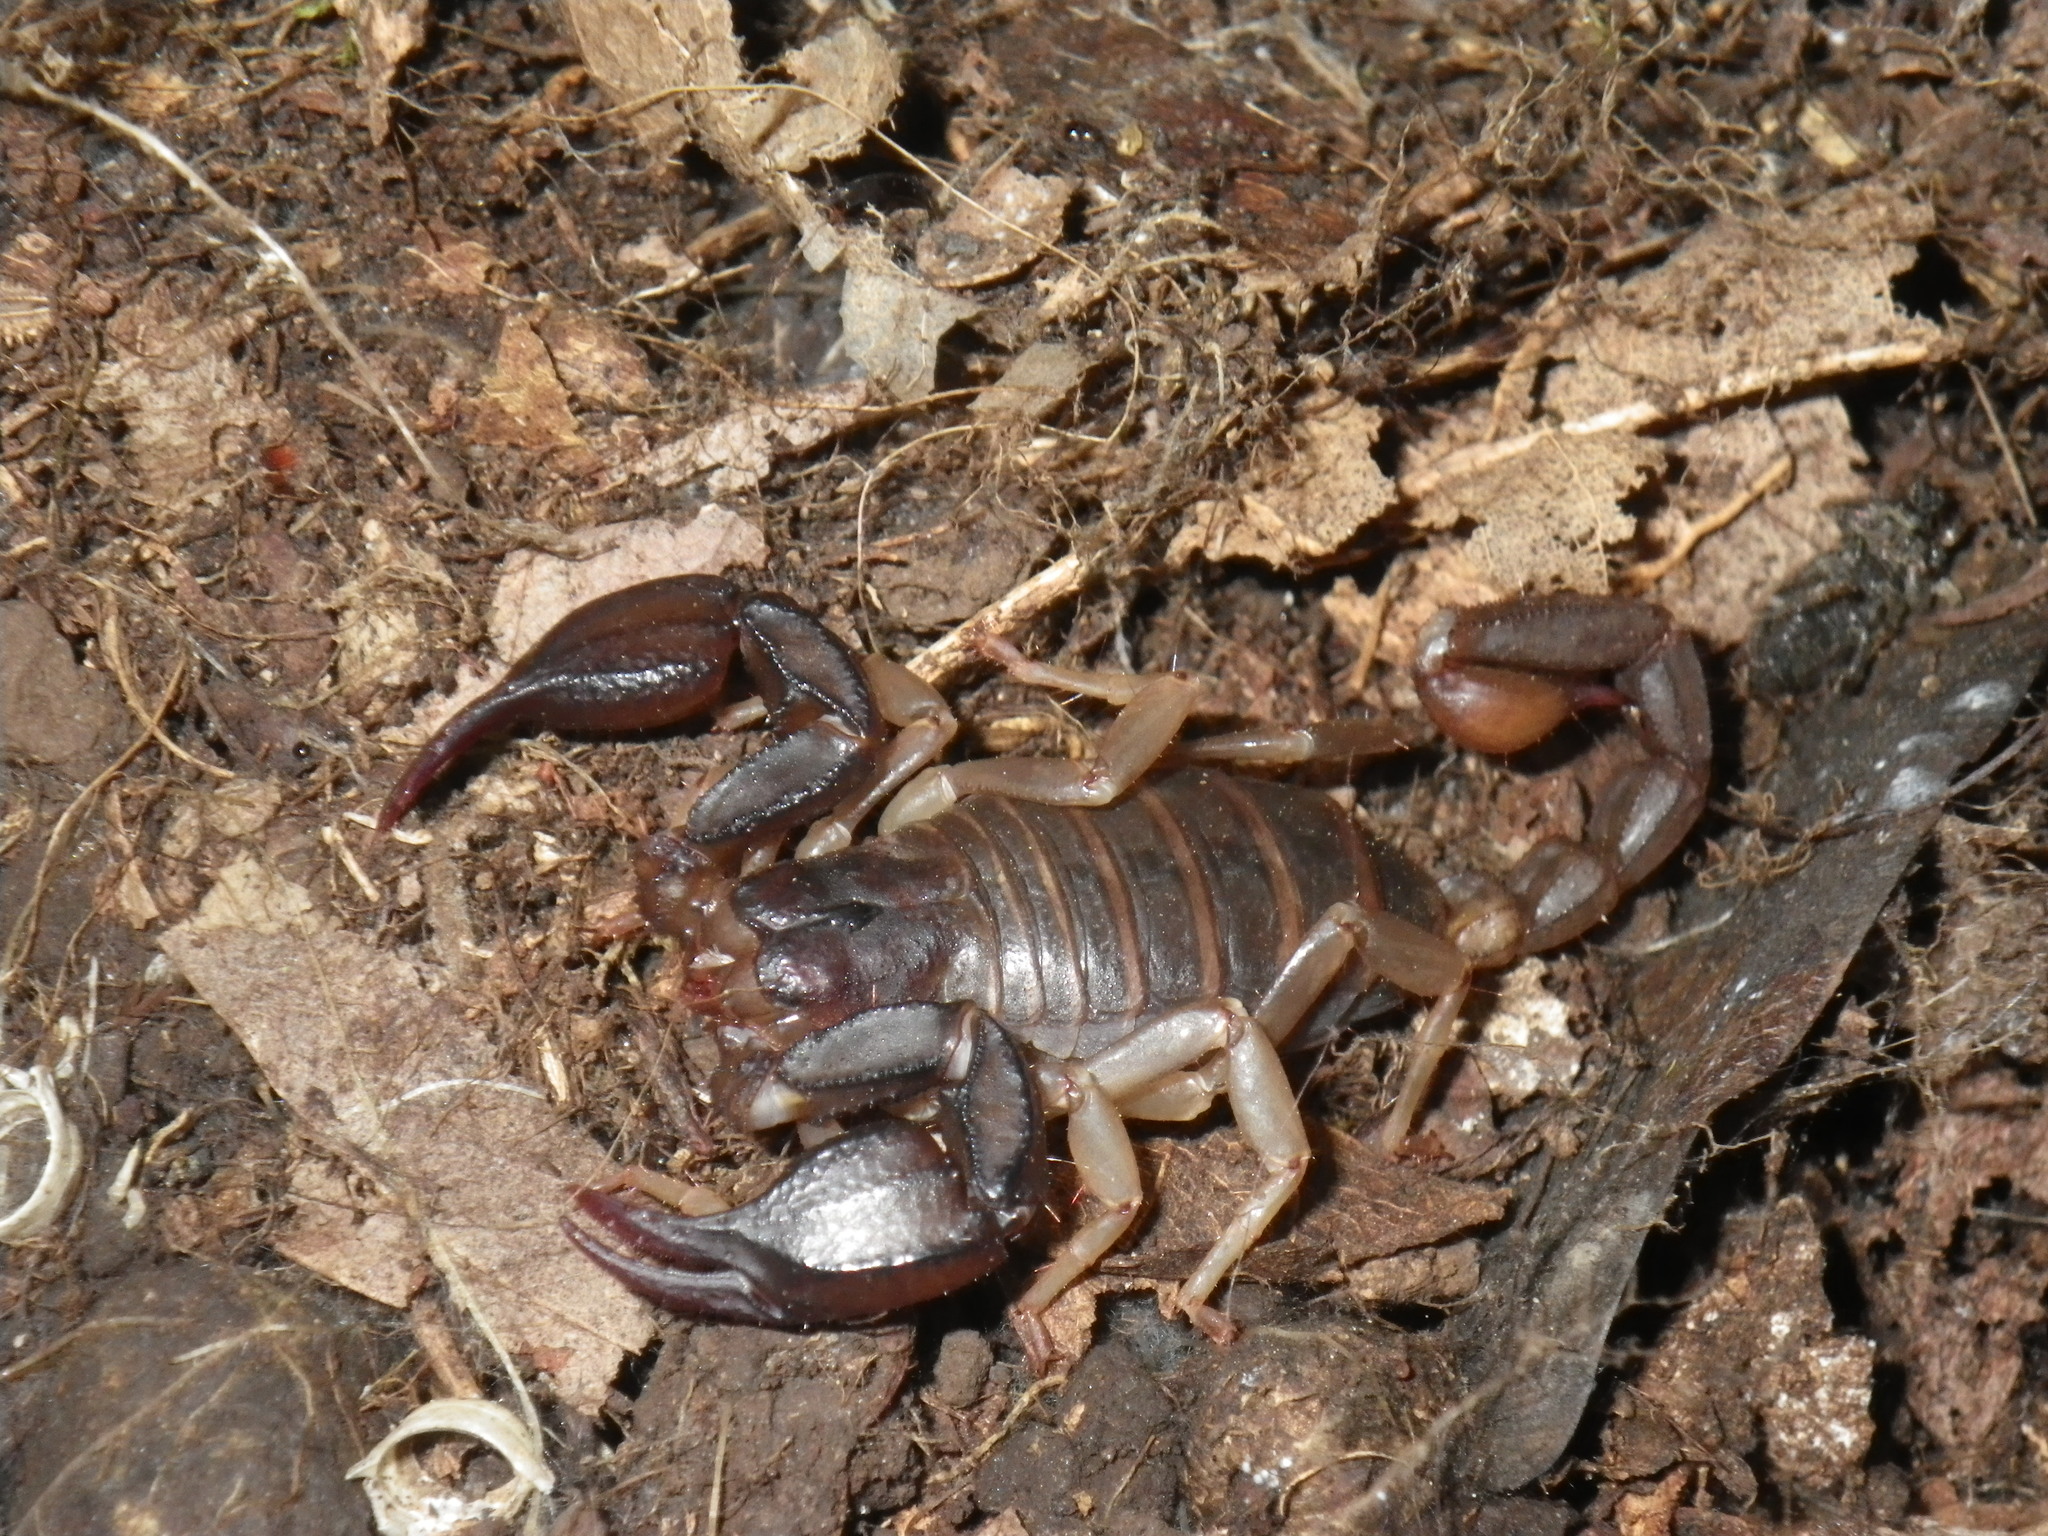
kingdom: Animalia
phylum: Arthropoda
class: Arachnida
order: Scorpiones
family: Chactidae
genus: Uroctonus
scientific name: Uroctonus mordax
